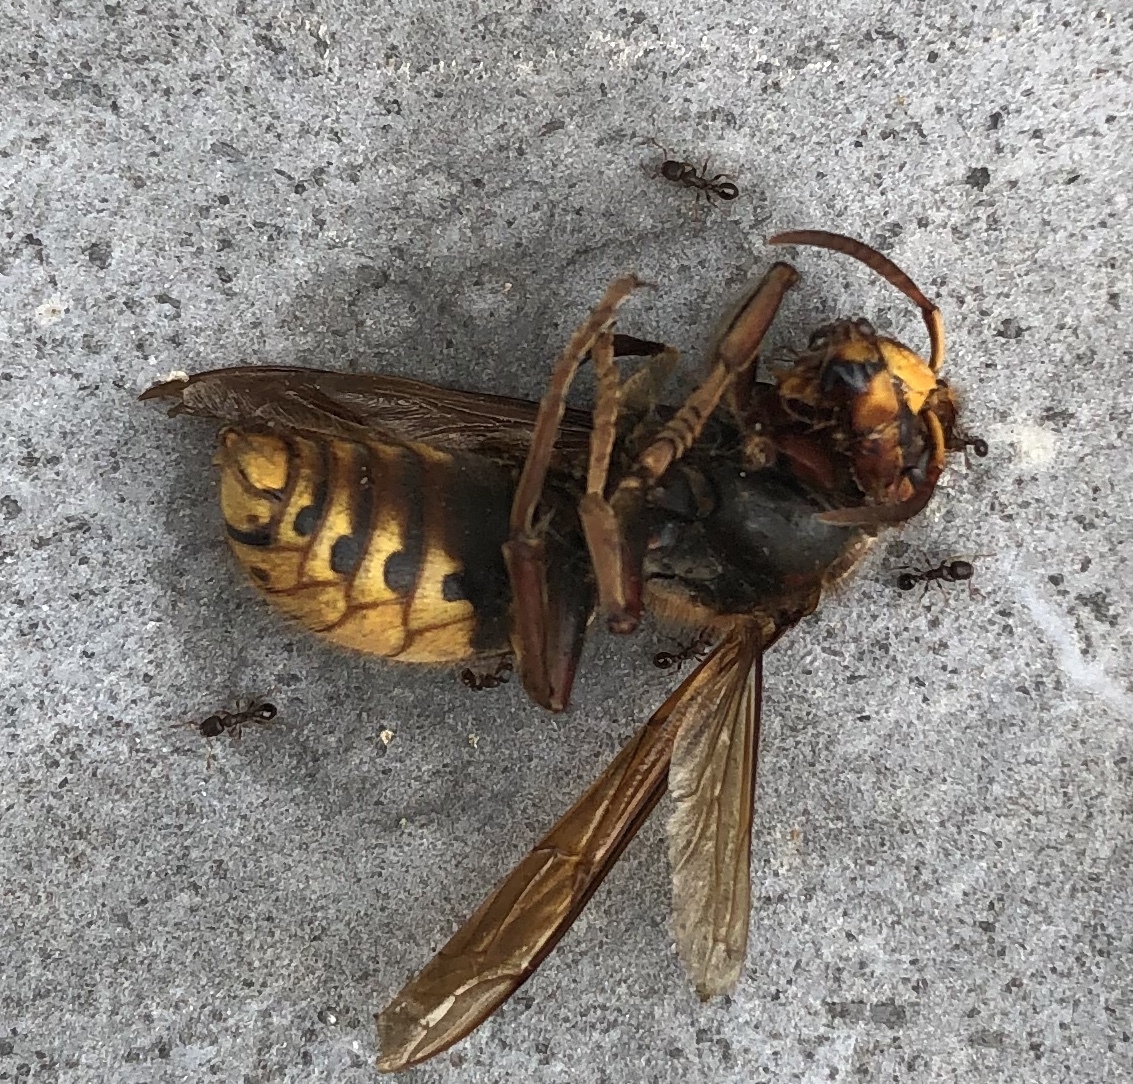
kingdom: Animalia
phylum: Arthropoda
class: Insecta
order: Hymenoptera
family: Vespidae
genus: Vespa
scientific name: Vespa crabro
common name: Hornet
